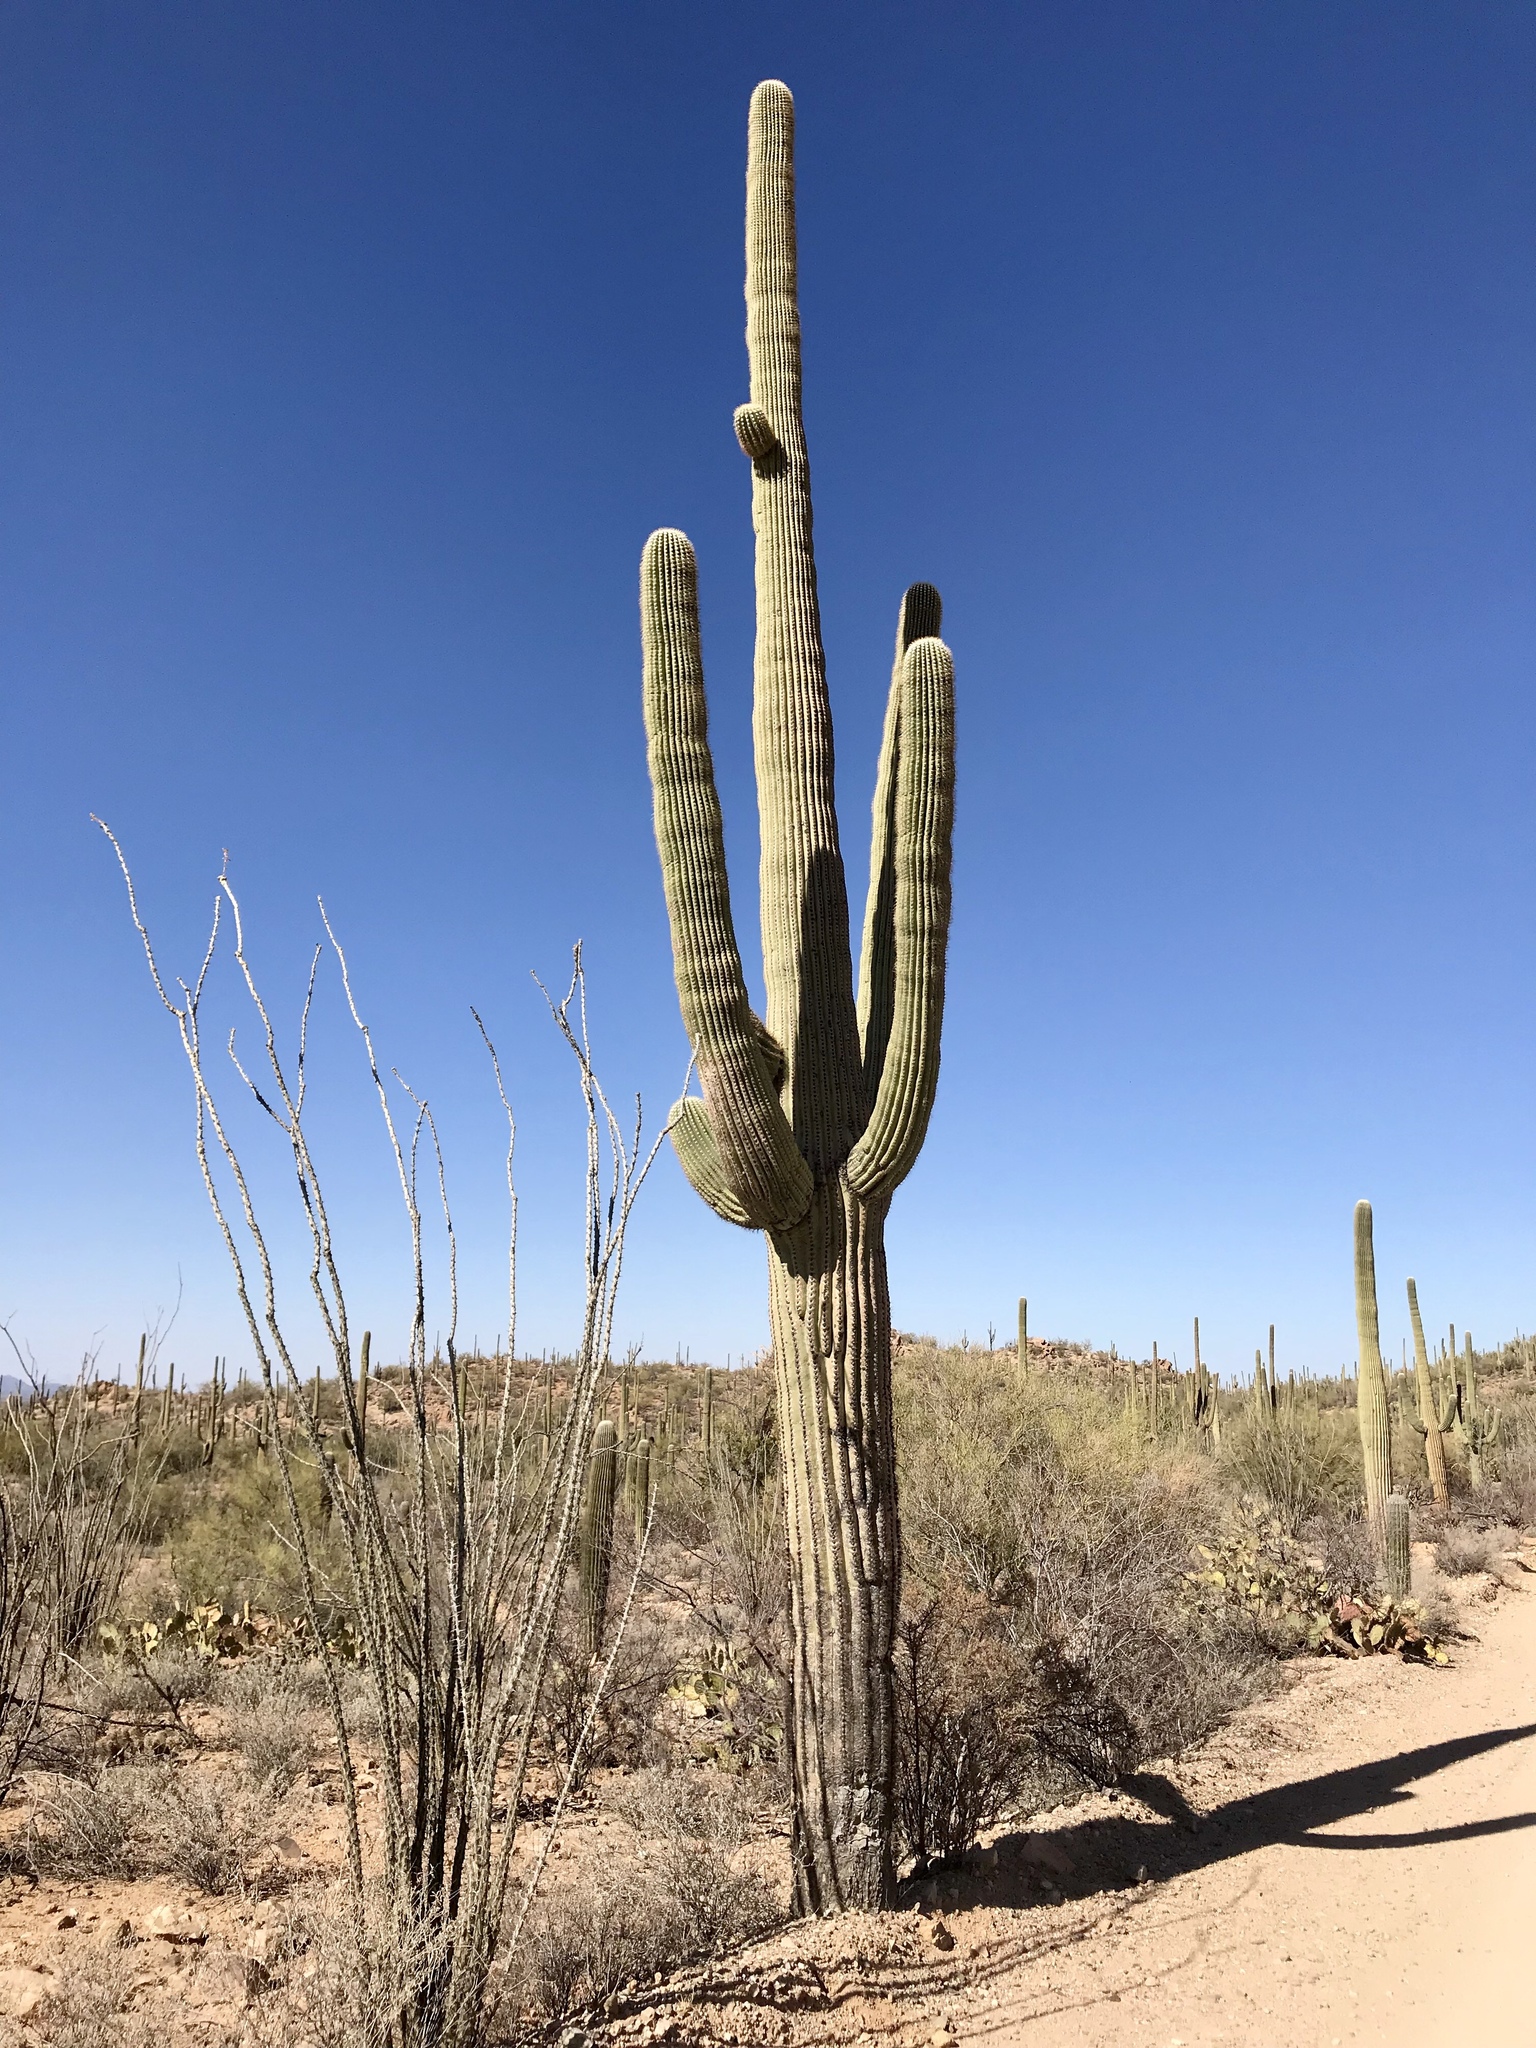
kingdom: Plantae
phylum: Tracheophyta
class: Magnoliopsida
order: Caryophyllales
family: Cactaceae
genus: Carnegiea
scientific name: Carnegiea gigantea
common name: Saguaro
